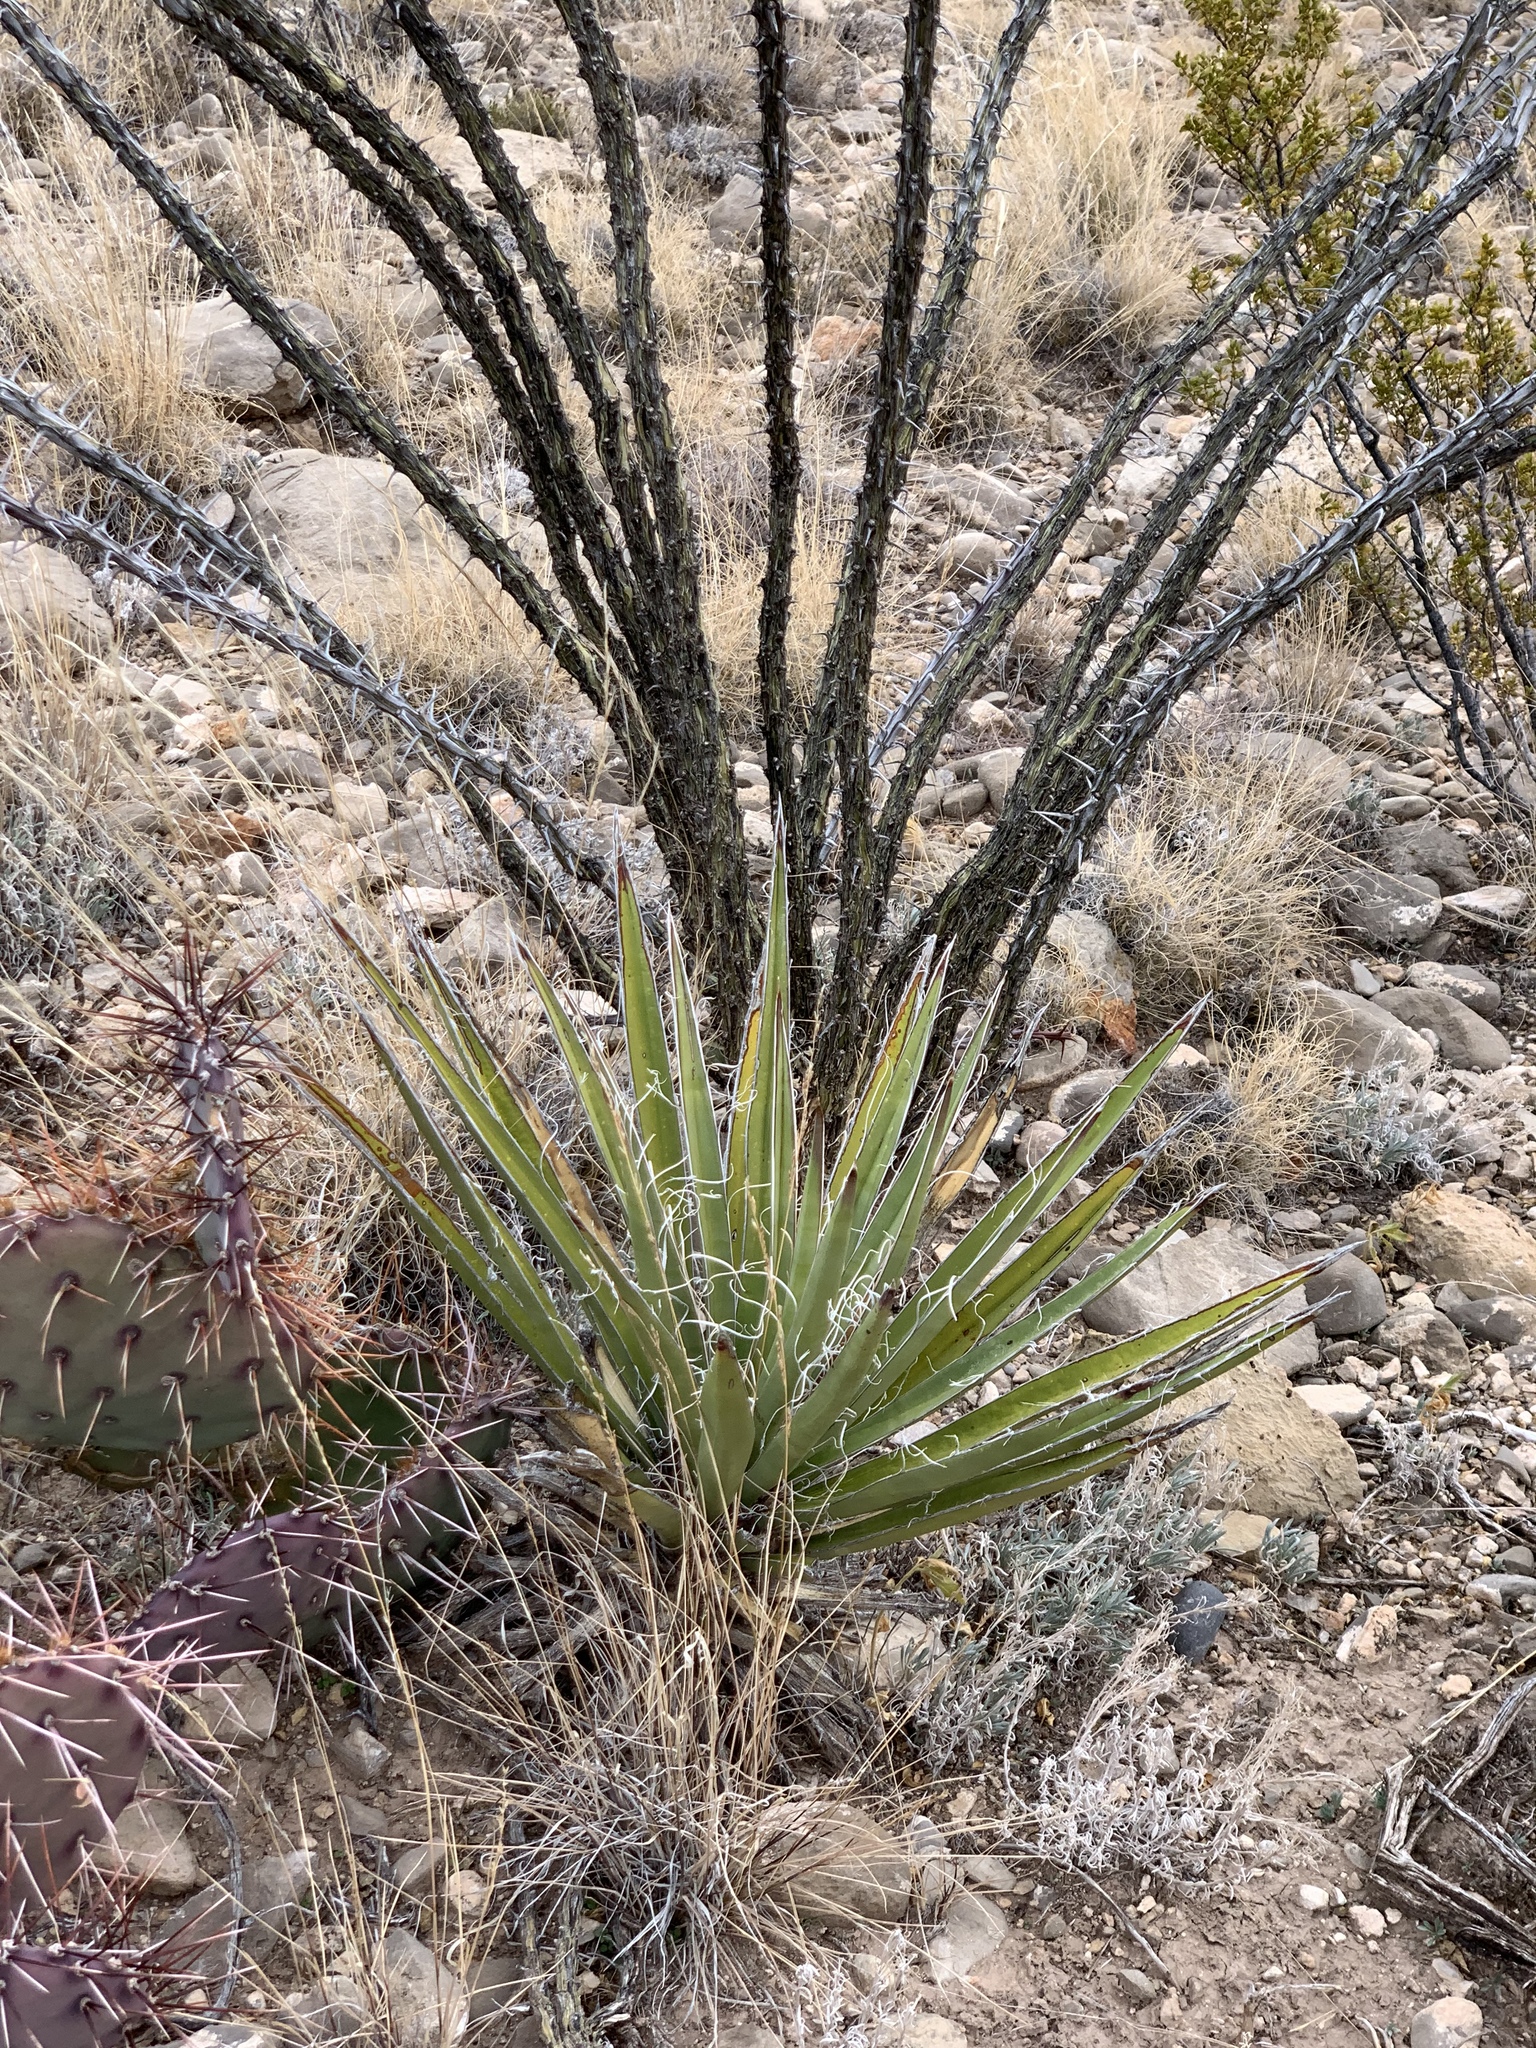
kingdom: Plantae
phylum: Tracheophyta
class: Liliopsida
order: Asparagales
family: Asparagaceae
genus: Yucca
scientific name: Yucca baccata
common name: Banana yucca
